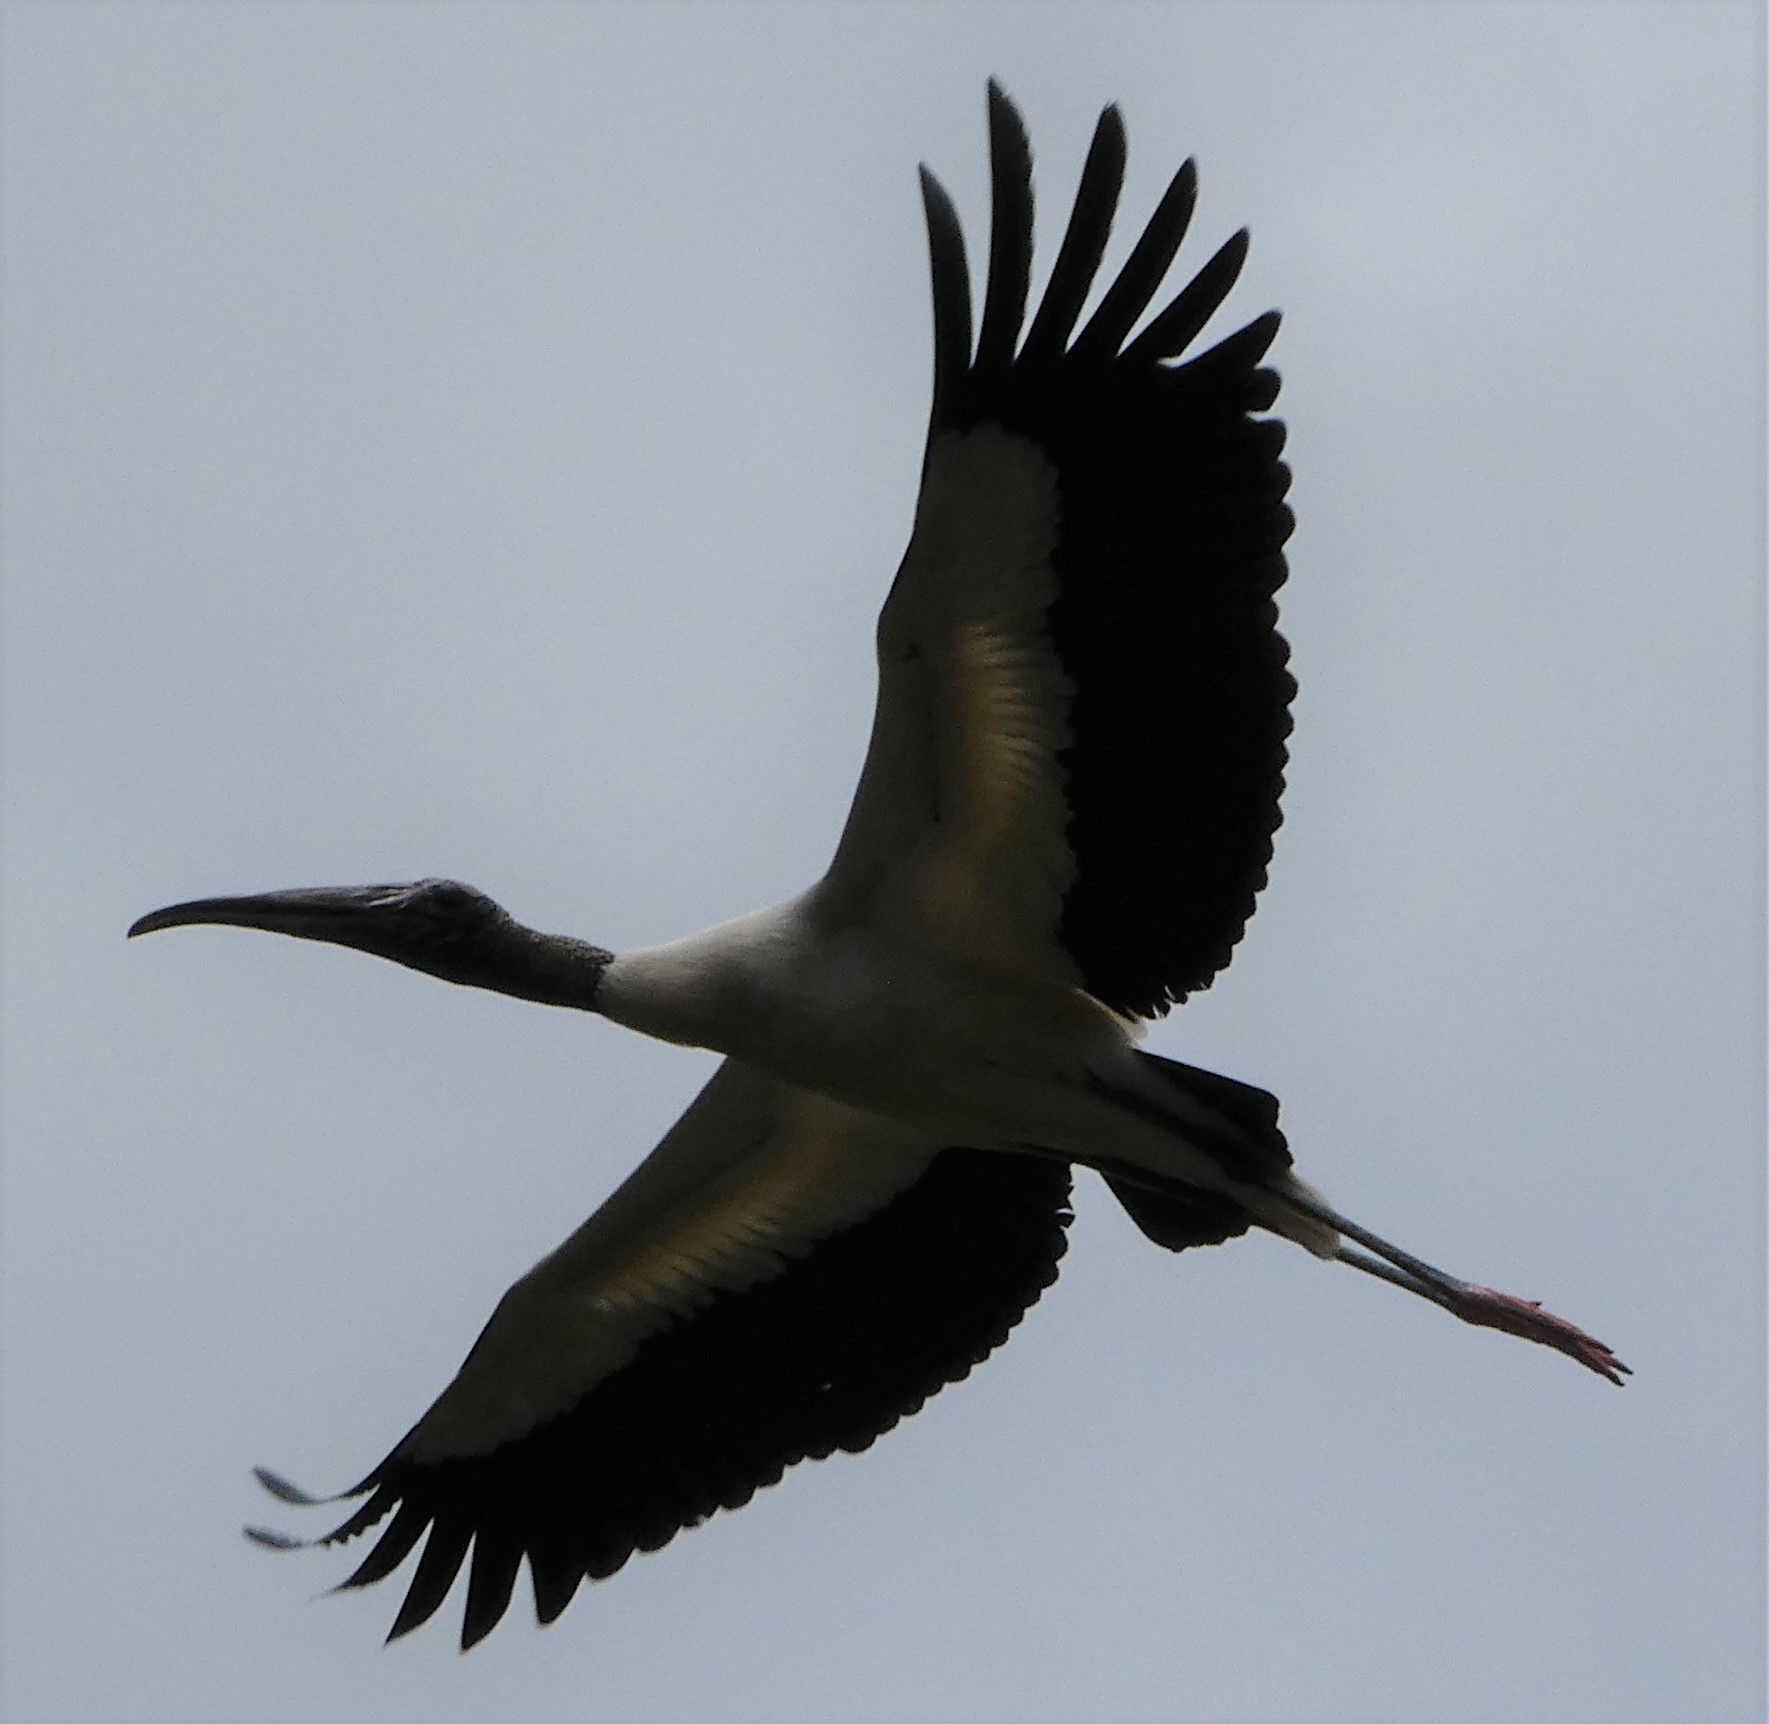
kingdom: Animalia
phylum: Chordata
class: Aves
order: Ciconiiformes
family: Ciconiidae
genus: Mycteria
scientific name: Mycteria americana
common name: Wood stork
